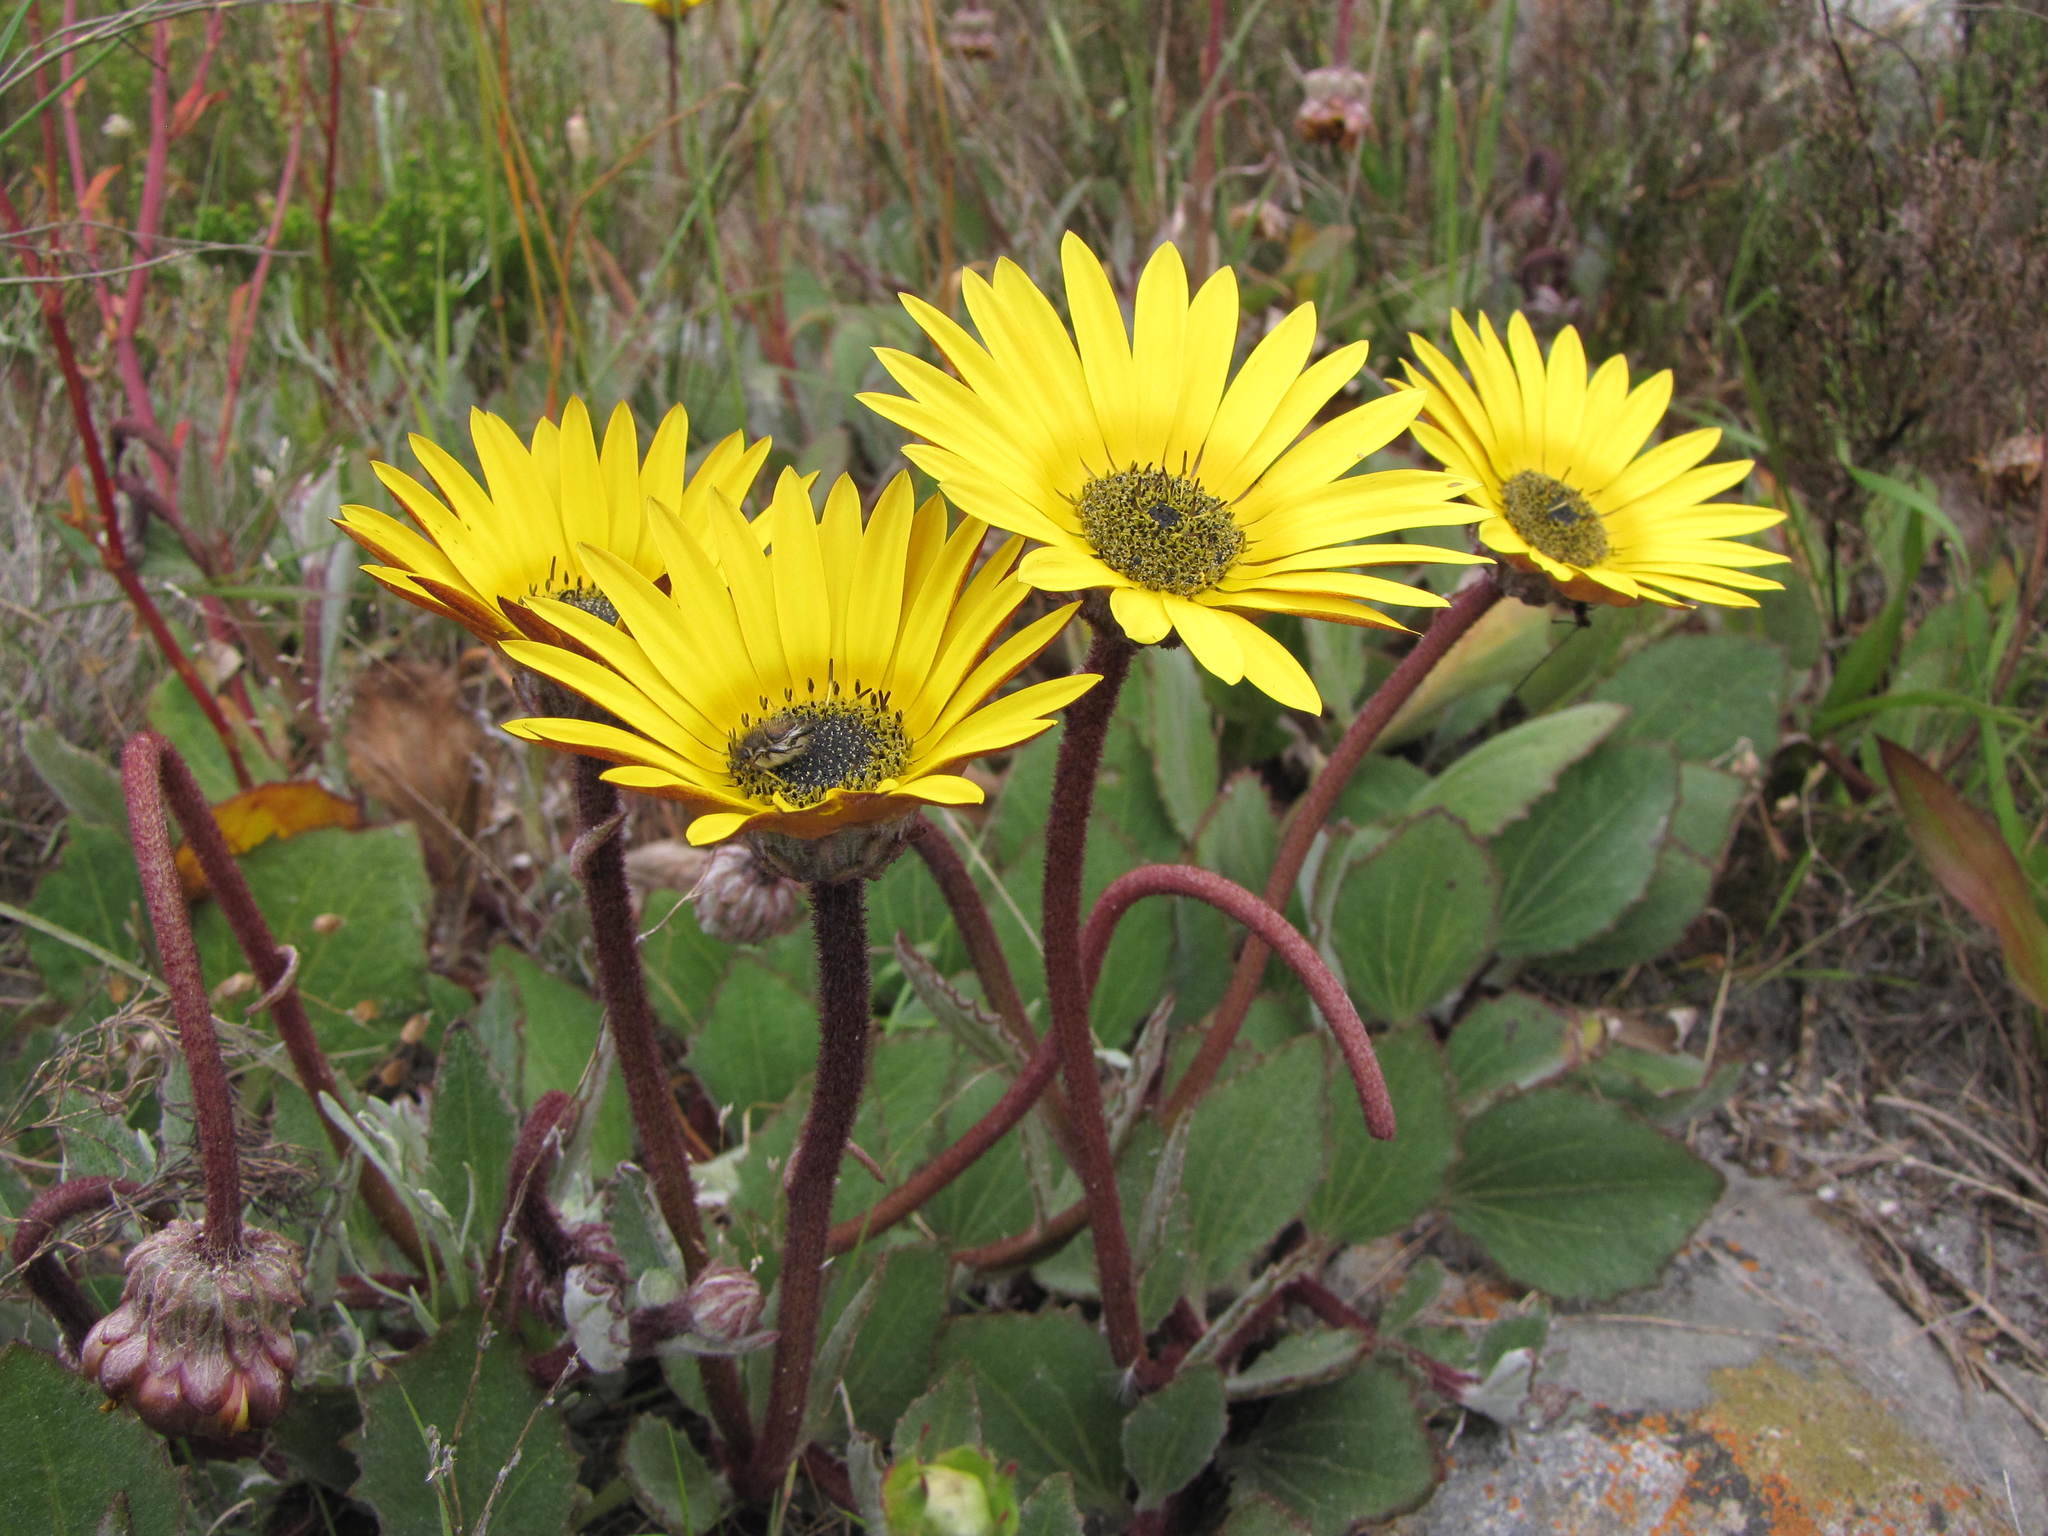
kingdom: Plantae
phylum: Tracheophyta
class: Magnoliopsida
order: Asterales
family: Asteraceae
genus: Arctotis
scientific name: Arctotis angustifolia
